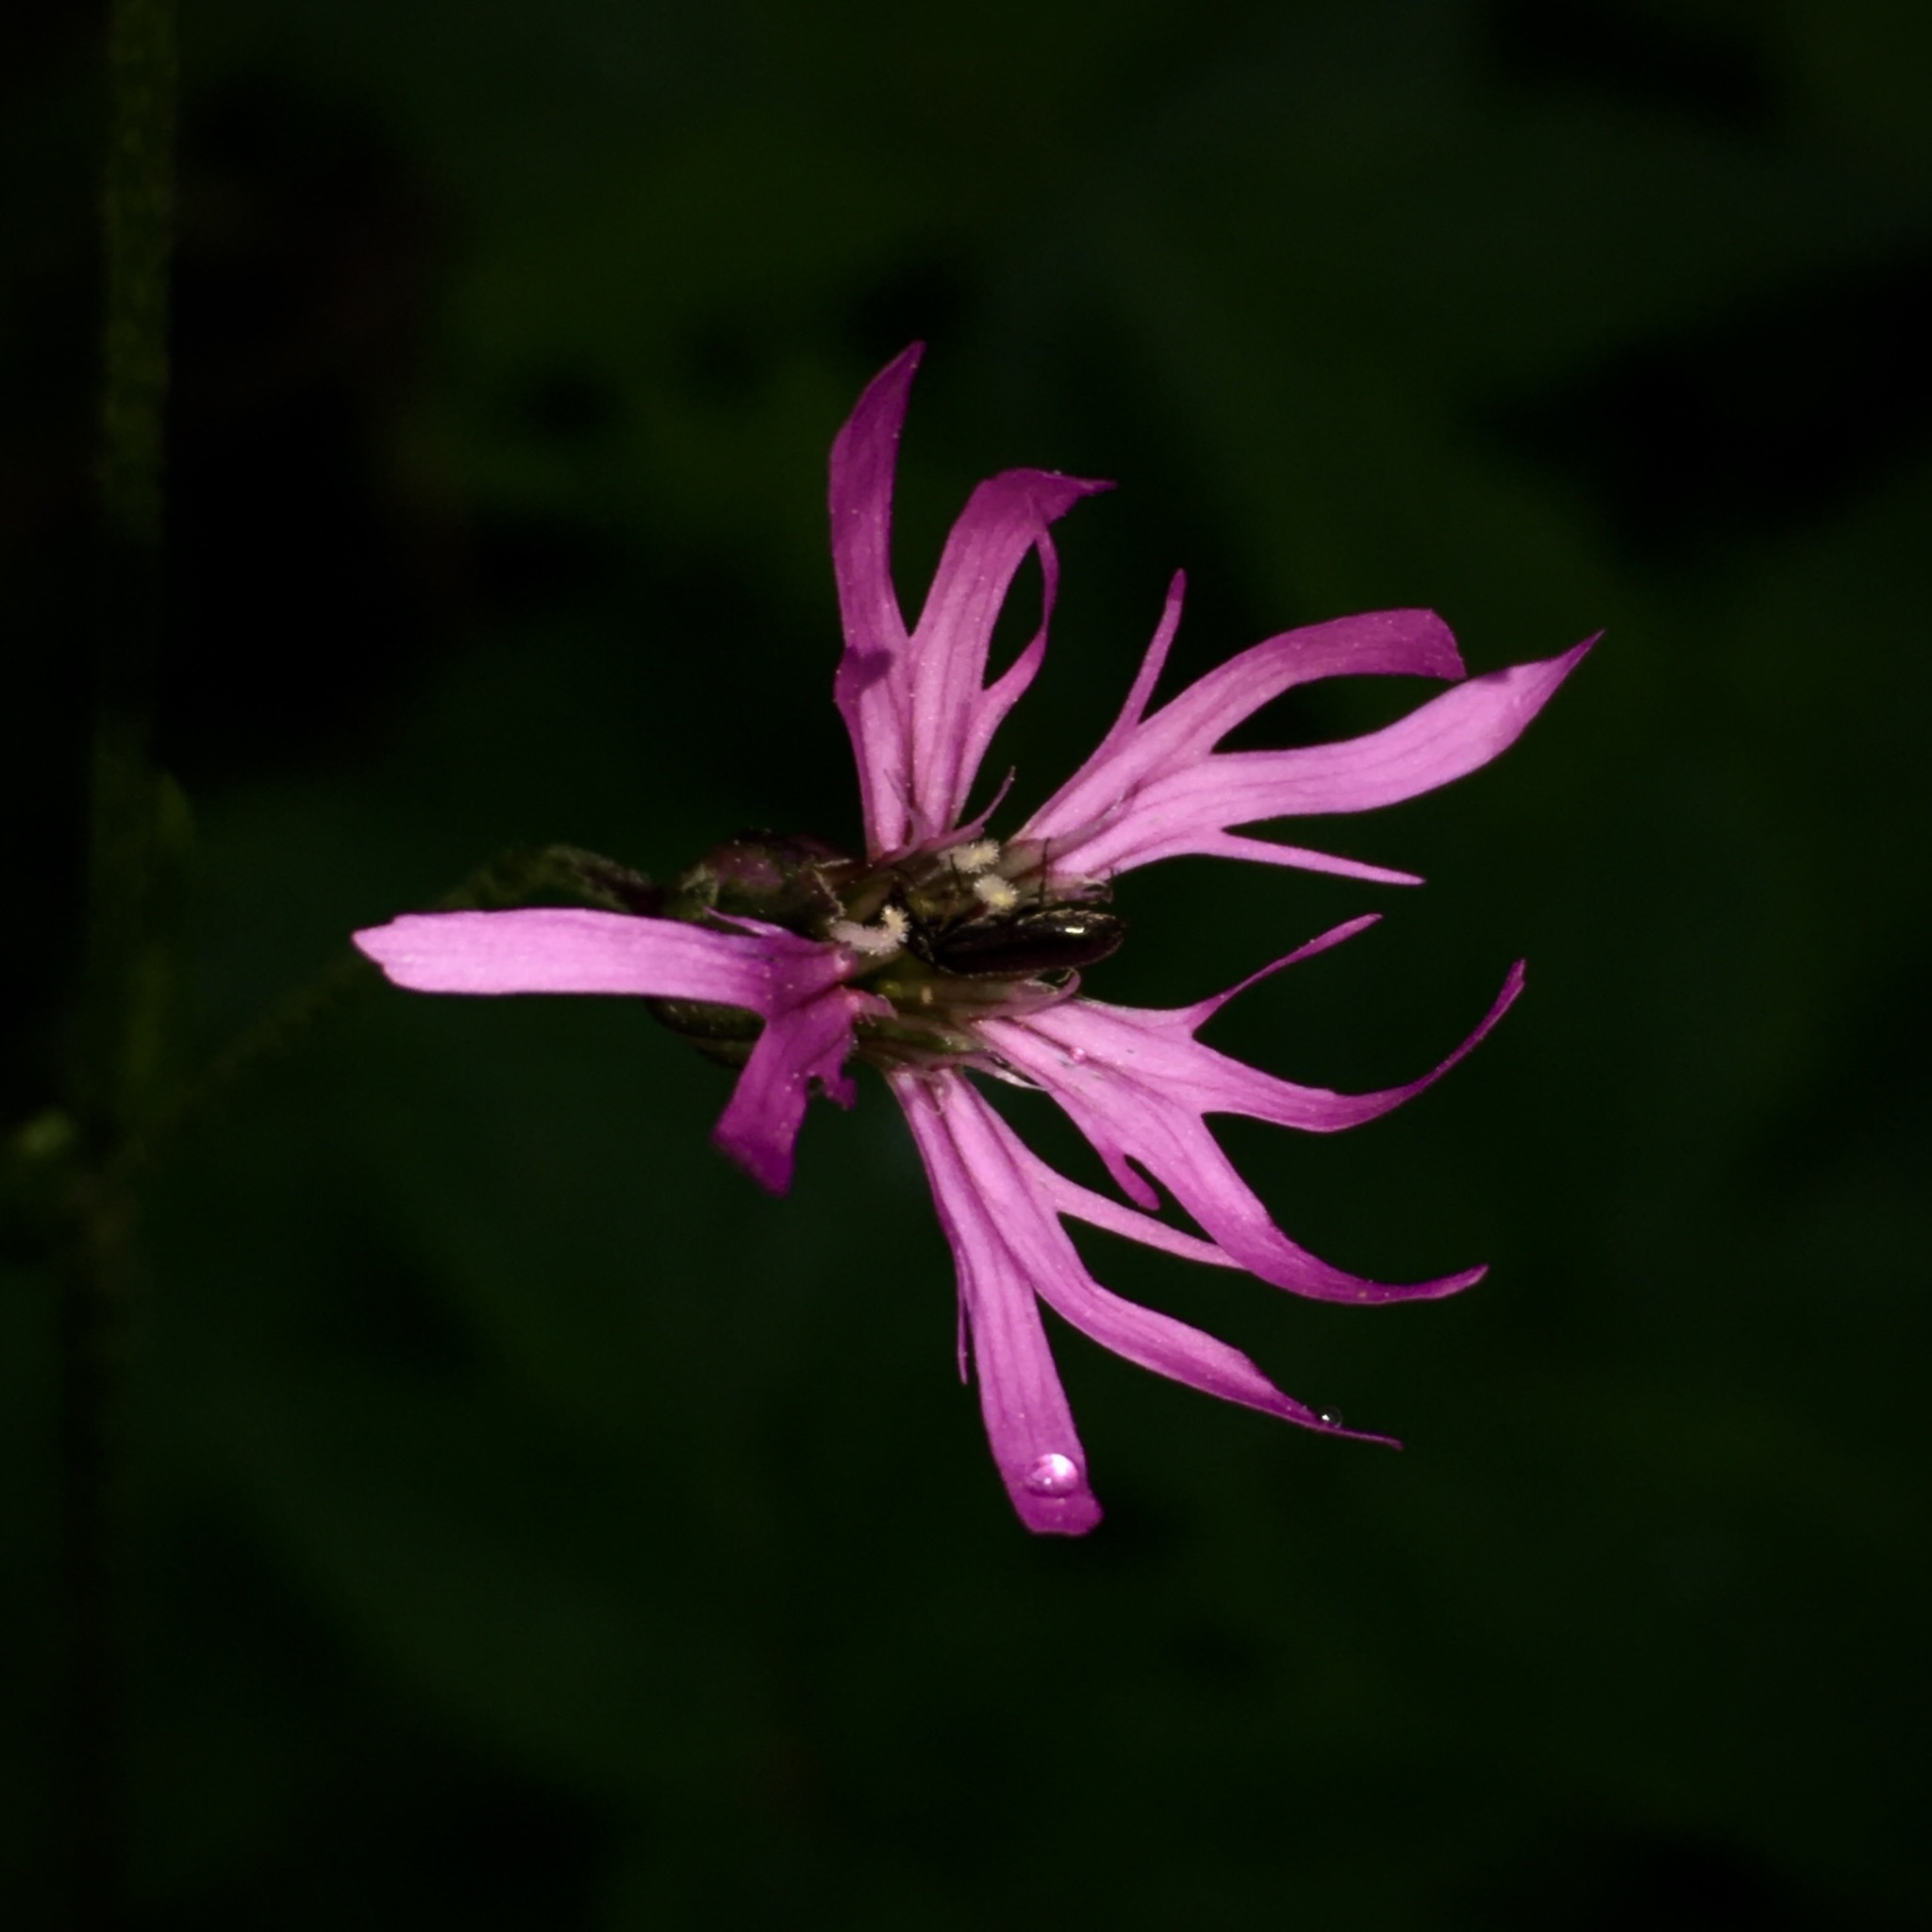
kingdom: Plantae
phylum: Tracheophyta
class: Magnoliopsida
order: Caryophyllales
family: Caryophyllaceae
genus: Silene
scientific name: Silene flos-cuculi
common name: Ragged-robin
